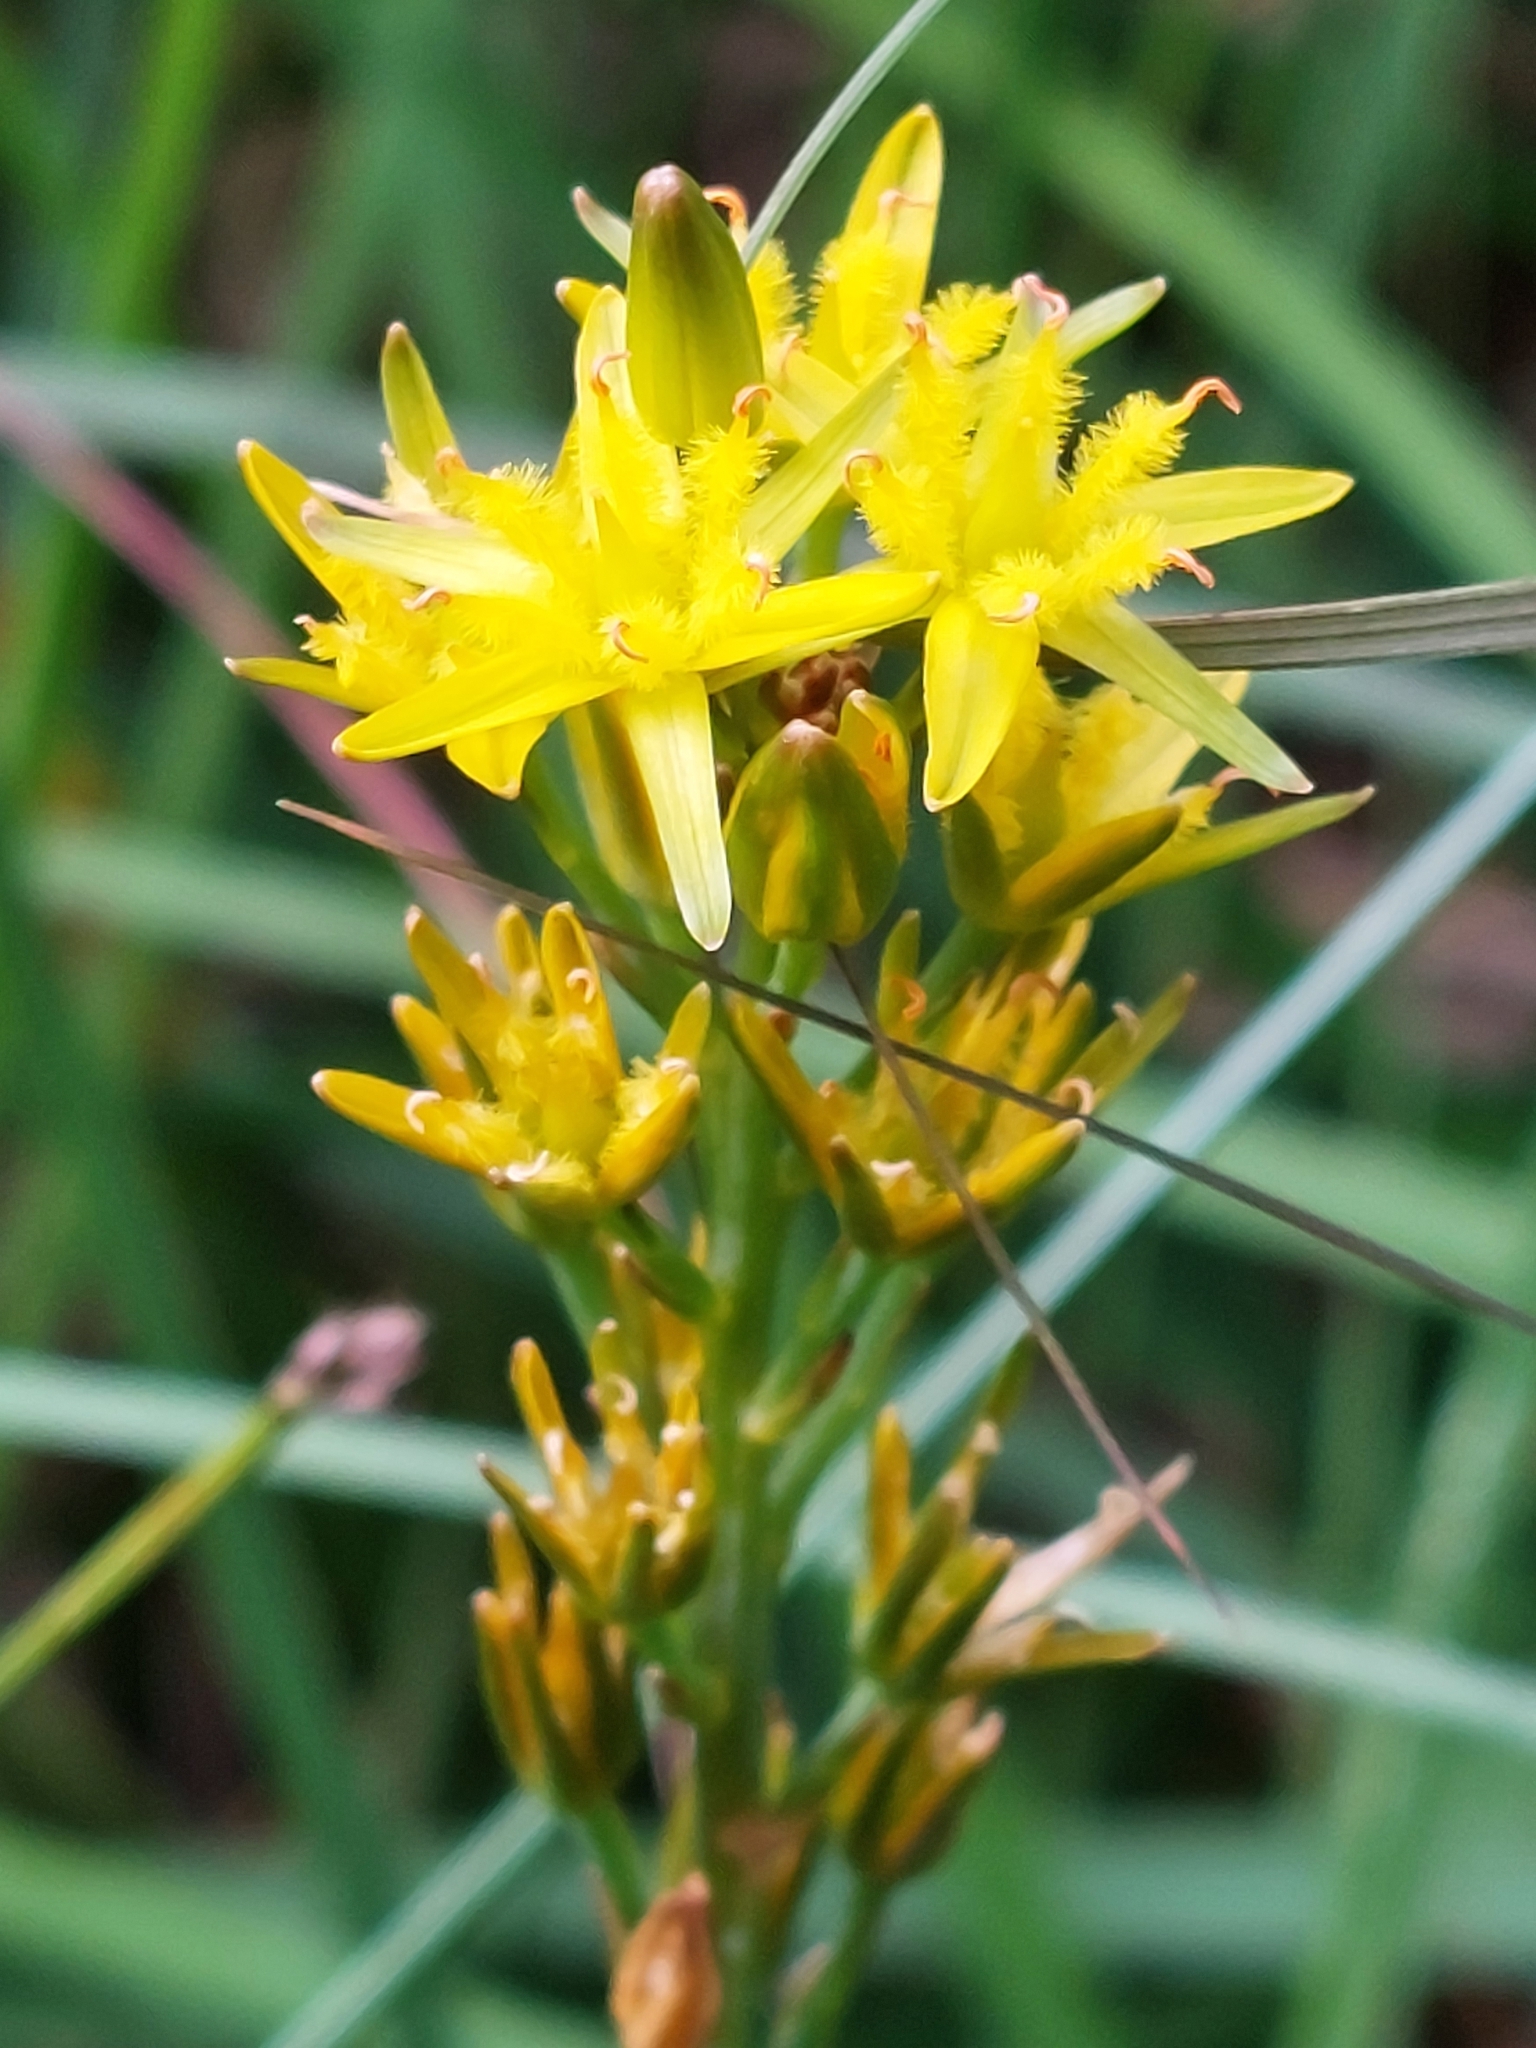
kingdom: Plantae
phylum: Tracheophyta
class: Liliopsida
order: Dioscoreales
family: Nartheciaceae
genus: Narthecium
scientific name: Narthecium ossifragum
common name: Bog asphodel
